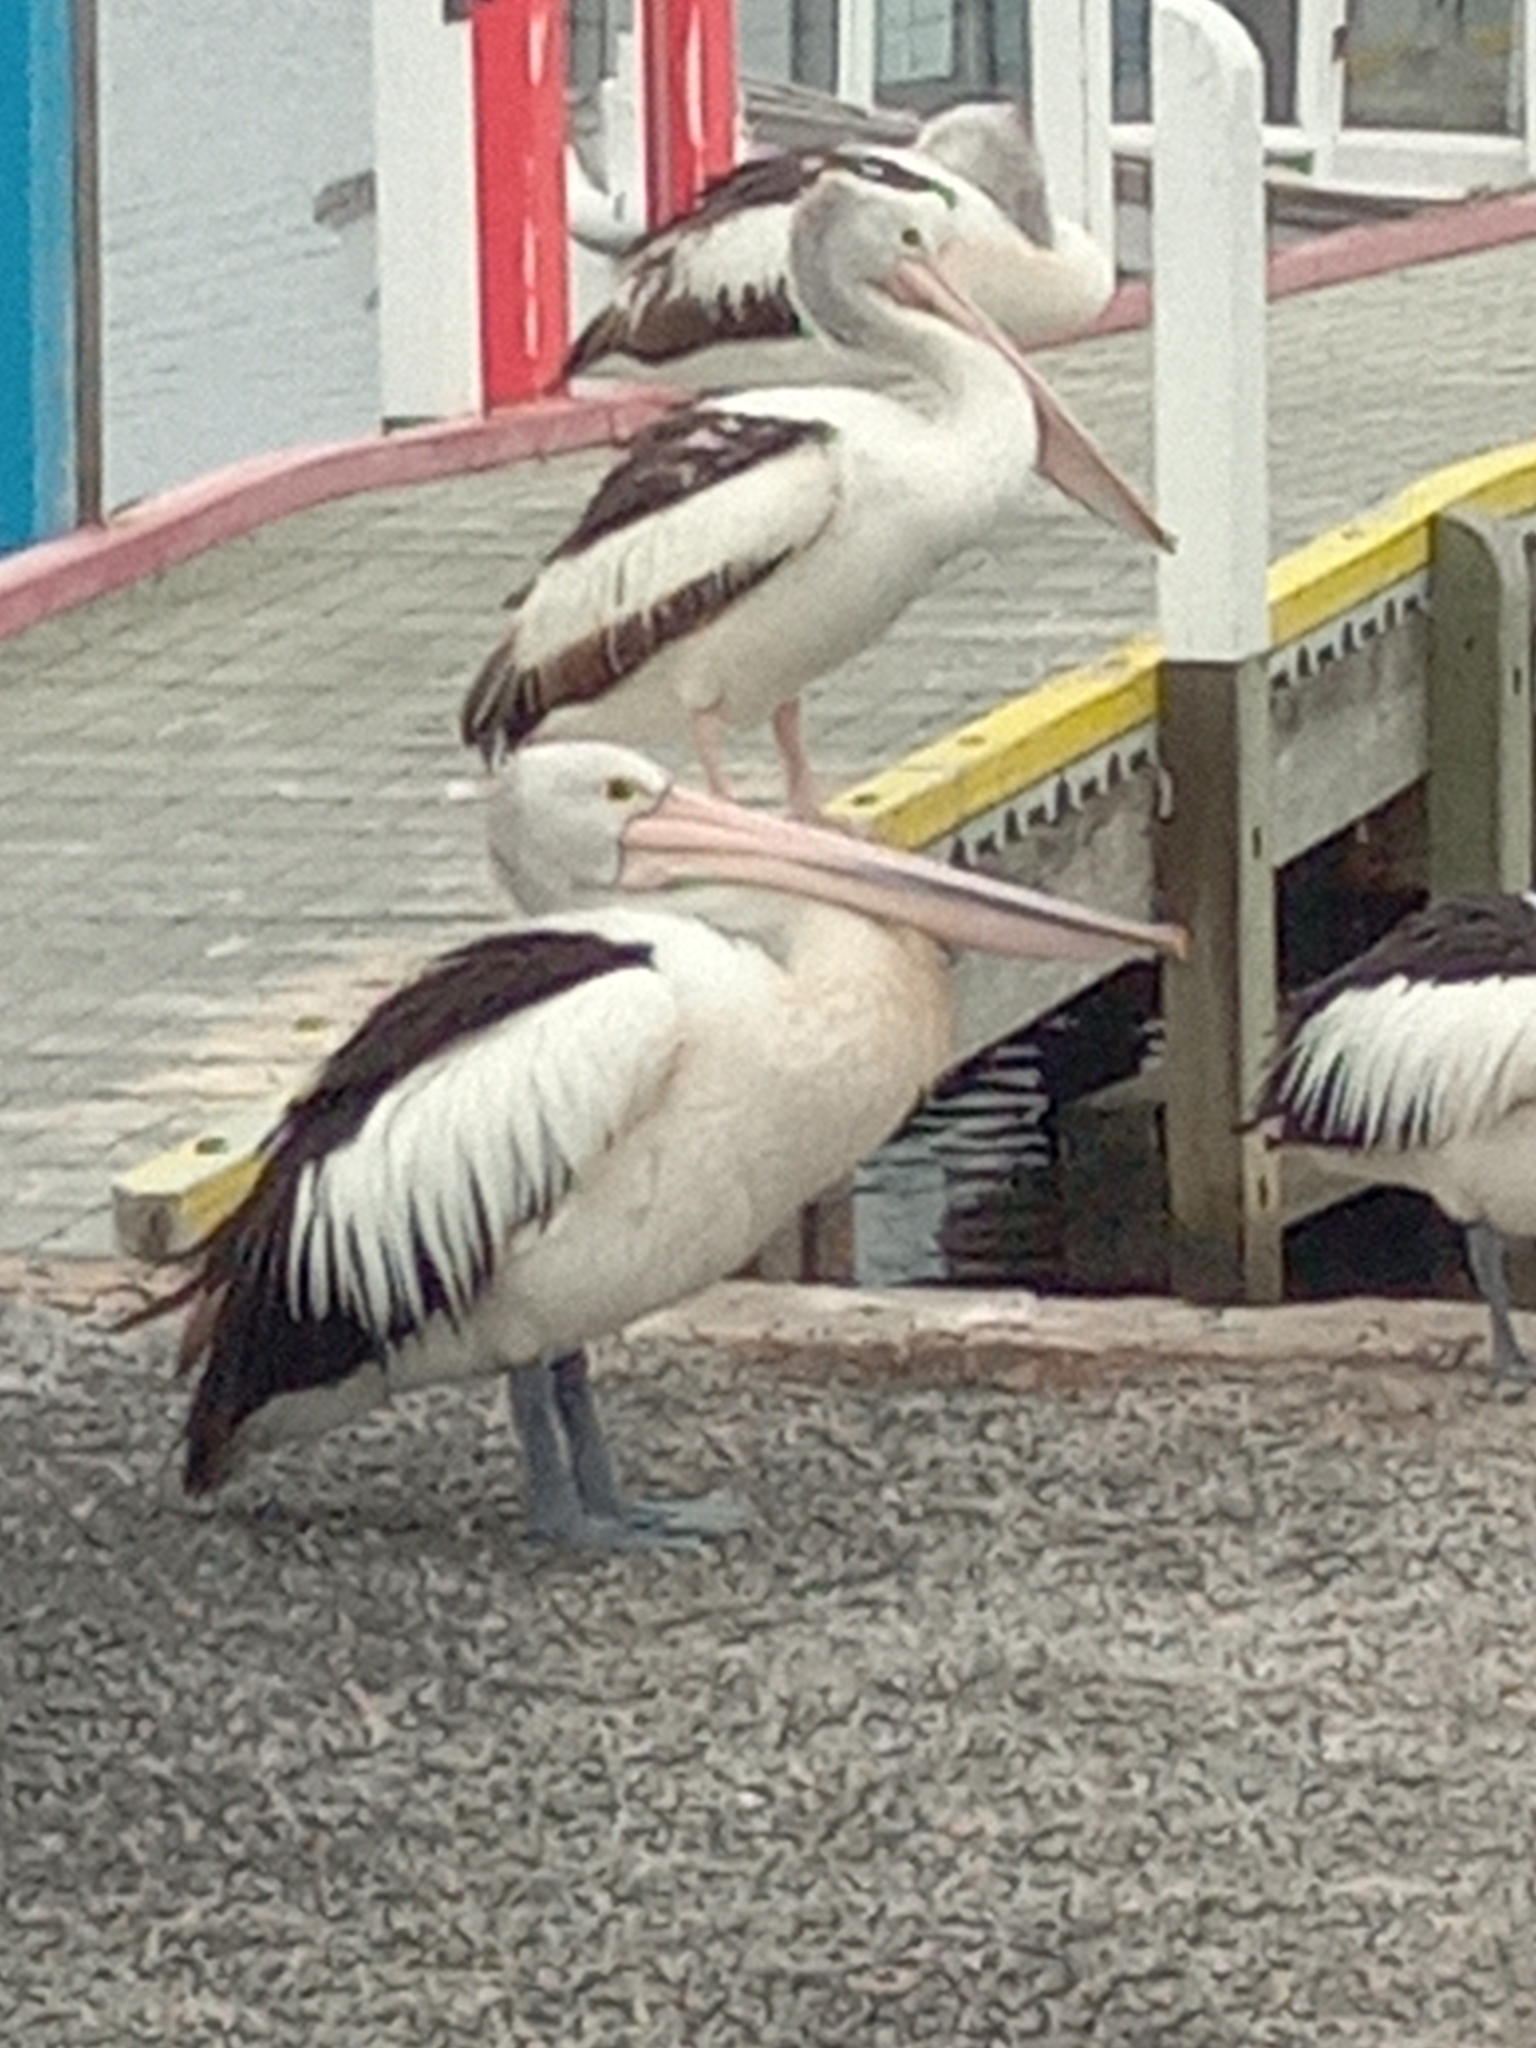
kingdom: Animalia
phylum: Chordata
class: Aves
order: Pelecaniformes
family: Pelecanidae
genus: Pelecanus
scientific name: Pelecanus conspicillatus
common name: Australian pelican
